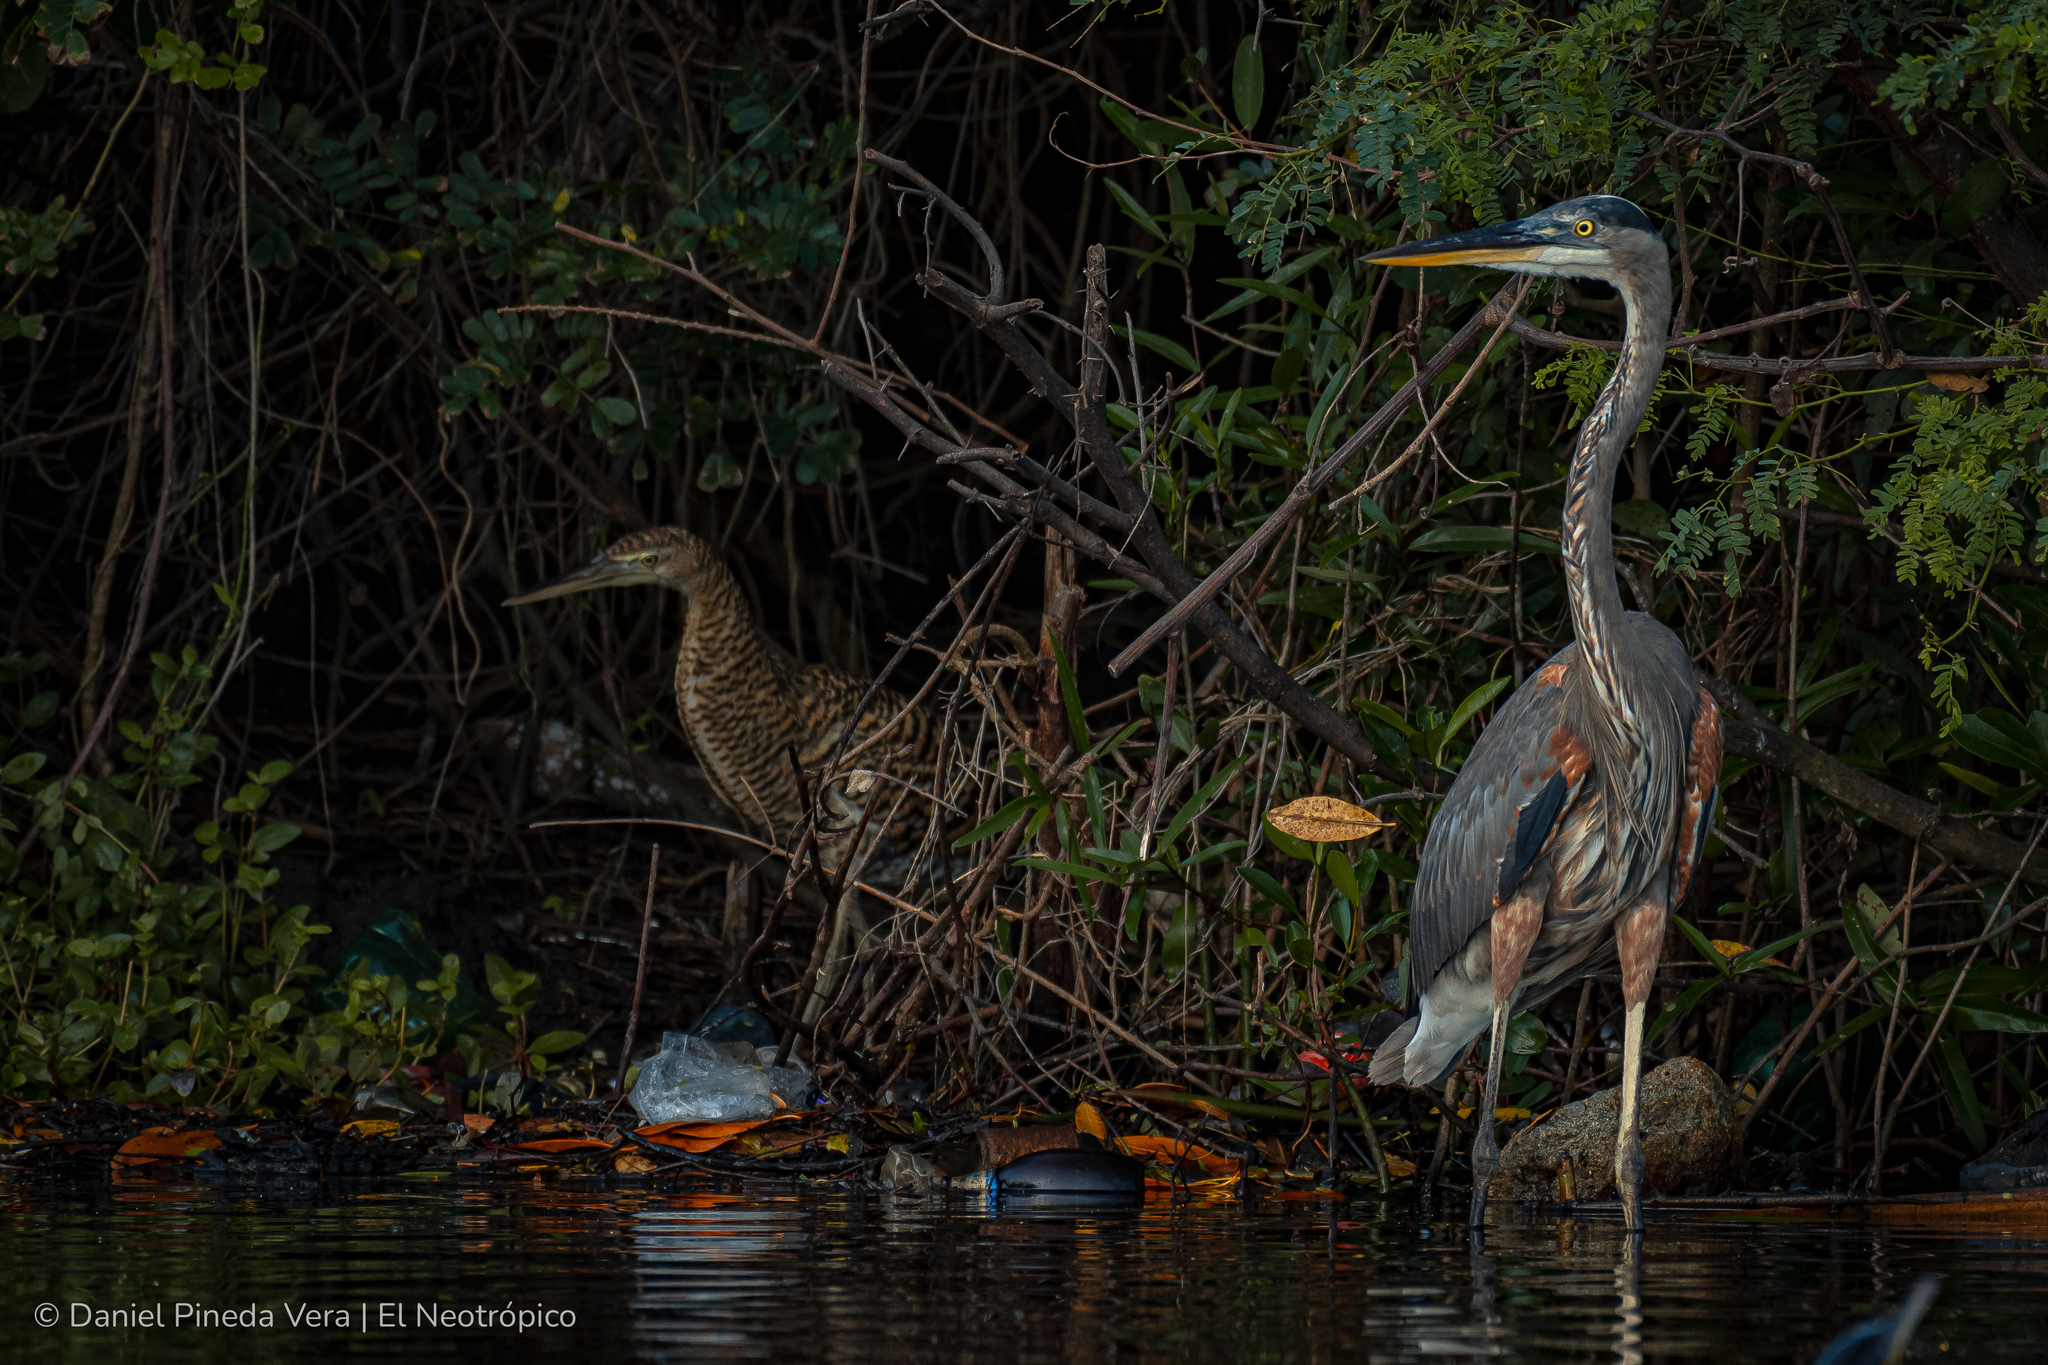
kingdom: Animalia
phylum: Chordata
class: Aves
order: Pelecaniformes
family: Ardeidae
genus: Ardea
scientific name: Ardea herodias
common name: Great blue heron
